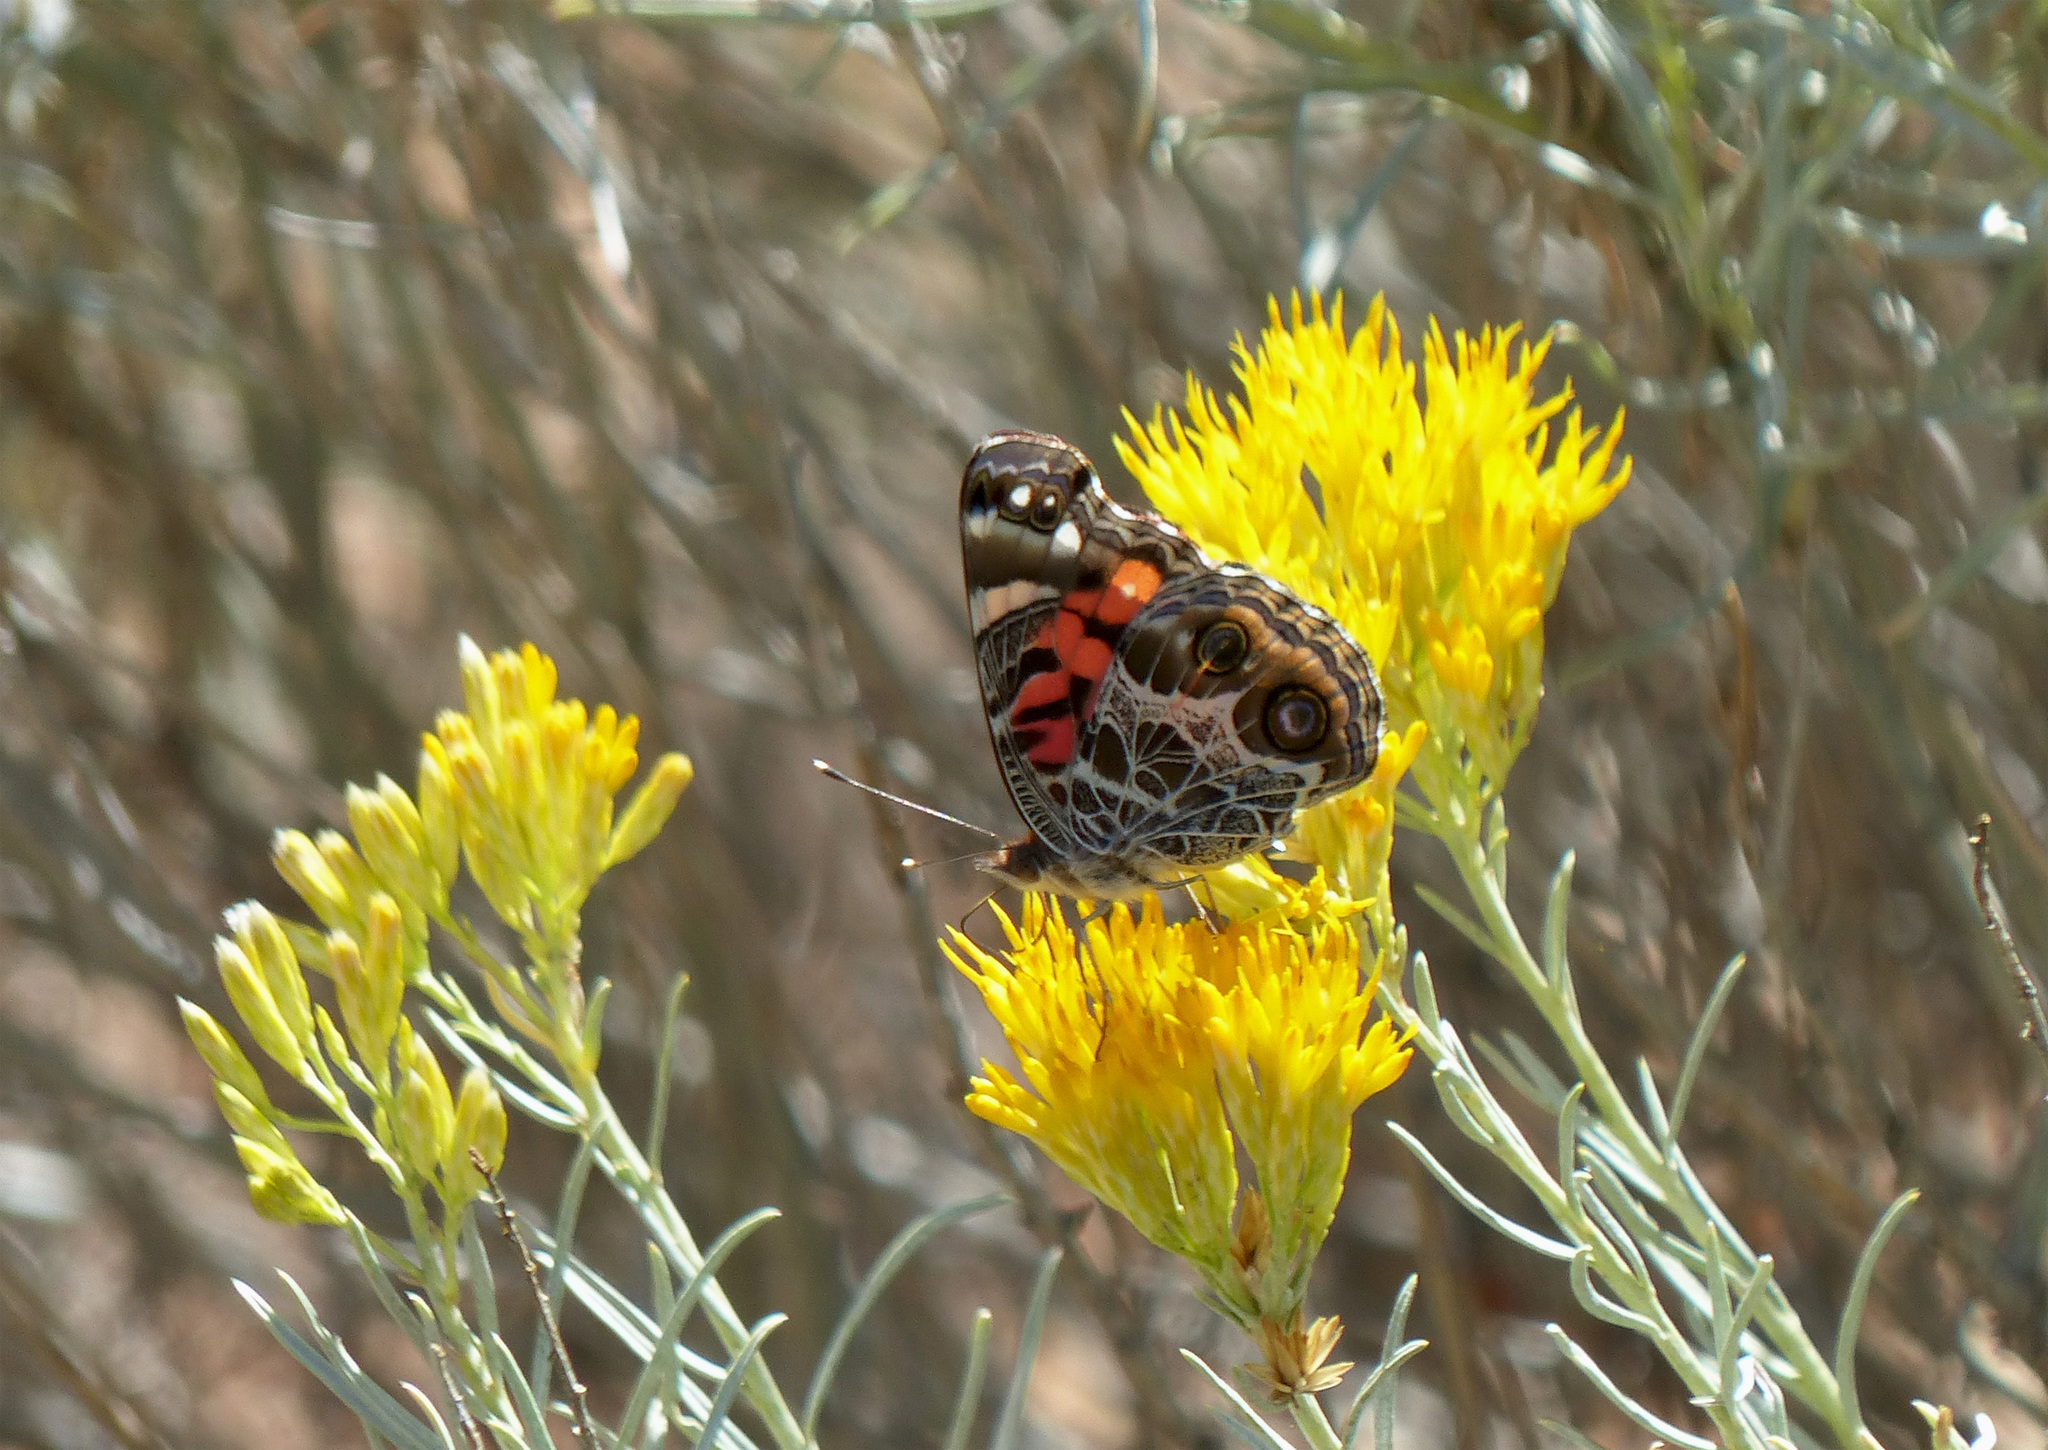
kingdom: Animalia
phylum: Arthropoda
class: Insecta
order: Lepidoptera
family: Nymphalidae
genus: Vanessa
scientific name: Vanessa virginiensis
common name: American lady
